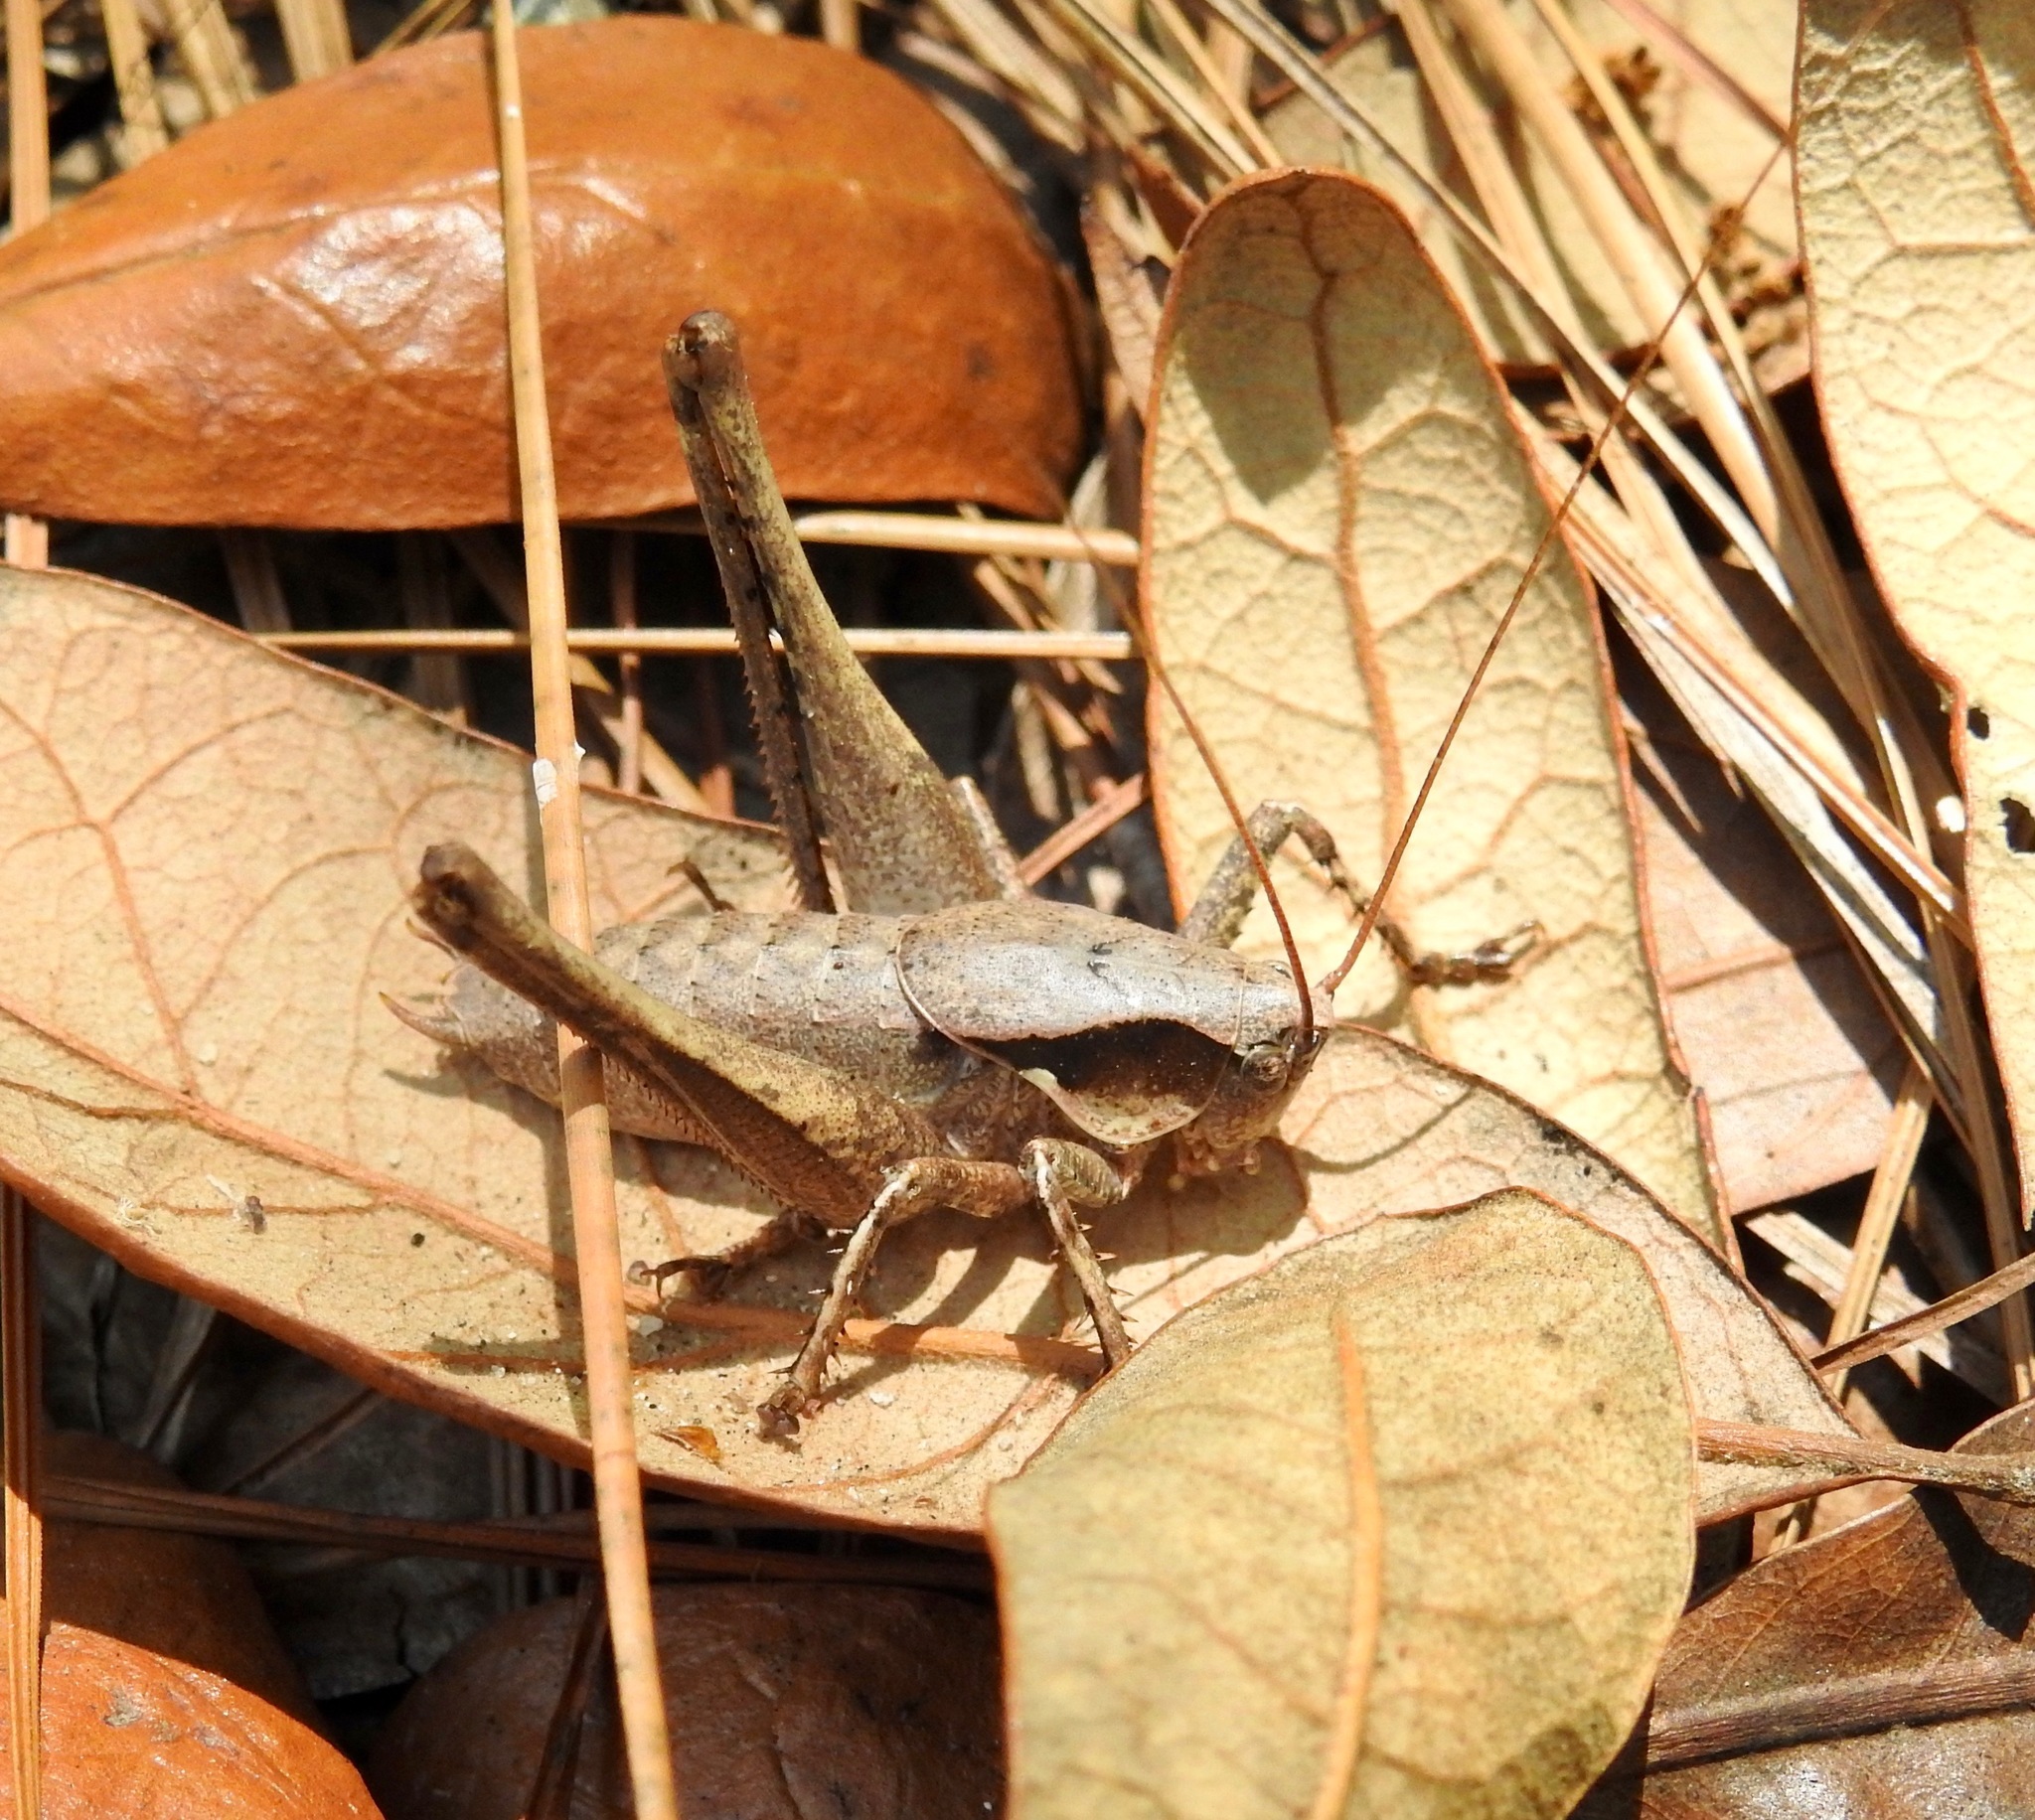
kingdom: Animalia
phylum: Arthropoda
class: Insecta
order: Orthoptera
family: Tettigoniidae
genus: Atlanticus
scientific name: Atlanticus gibbosus
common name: Robust shield-bearer
